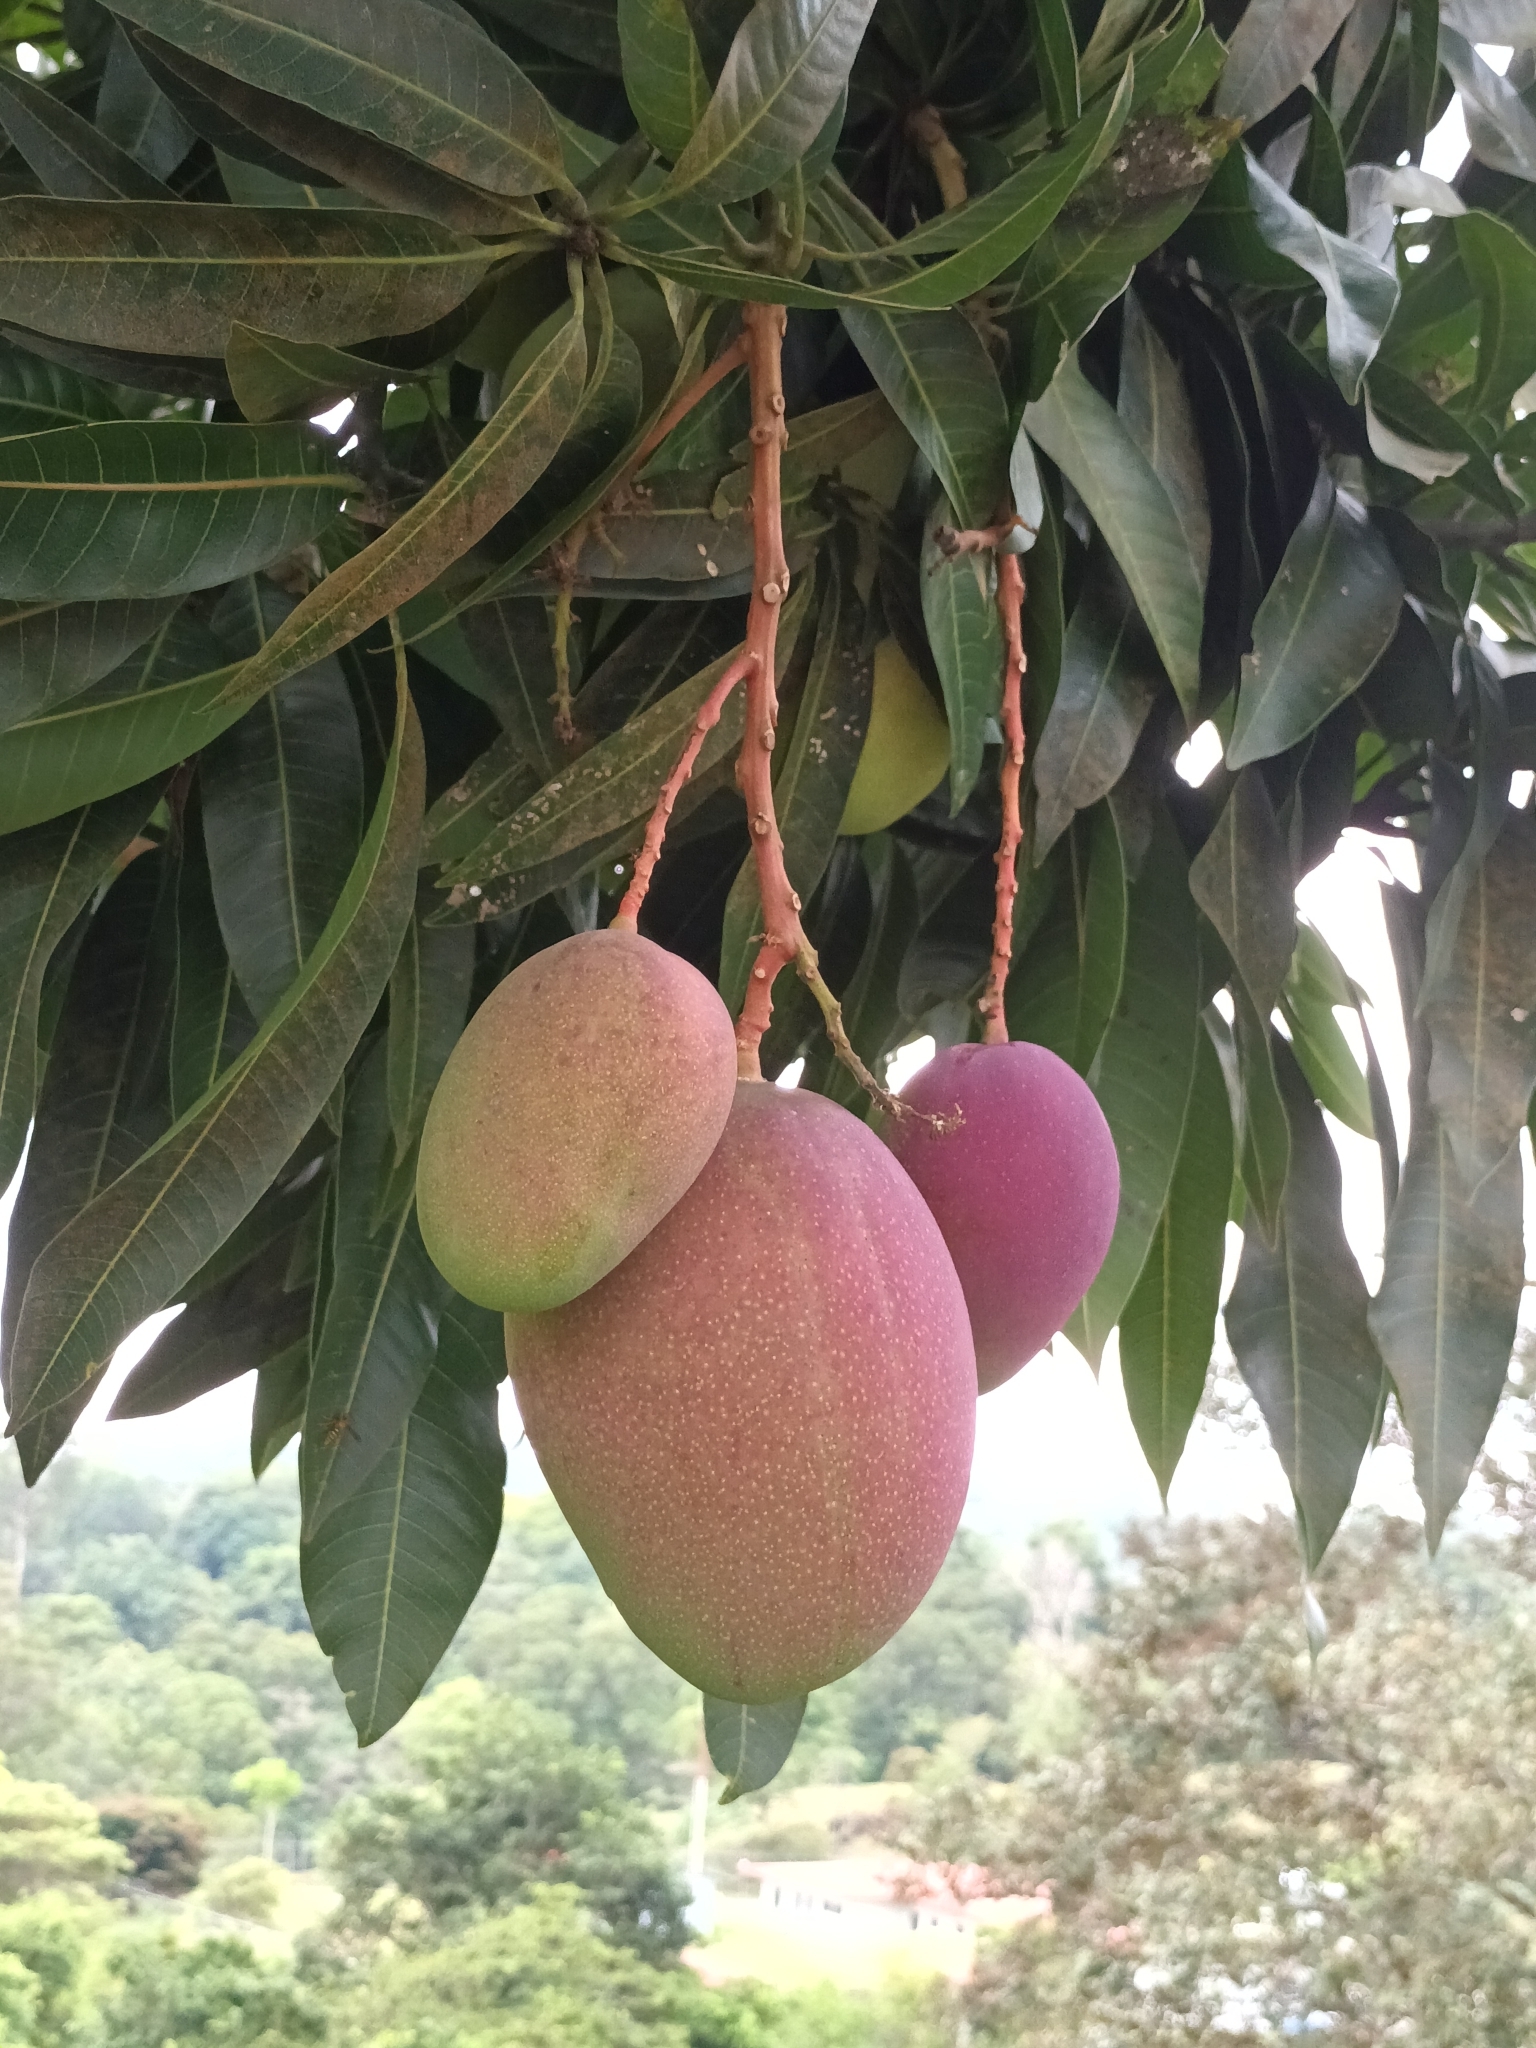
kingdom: Plantae
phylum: Tracheophyta
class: Magnoliopsida
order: Sapindales
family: Anacardiaceae
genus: Mangifera
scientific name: Mangifera indica
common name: Mango
